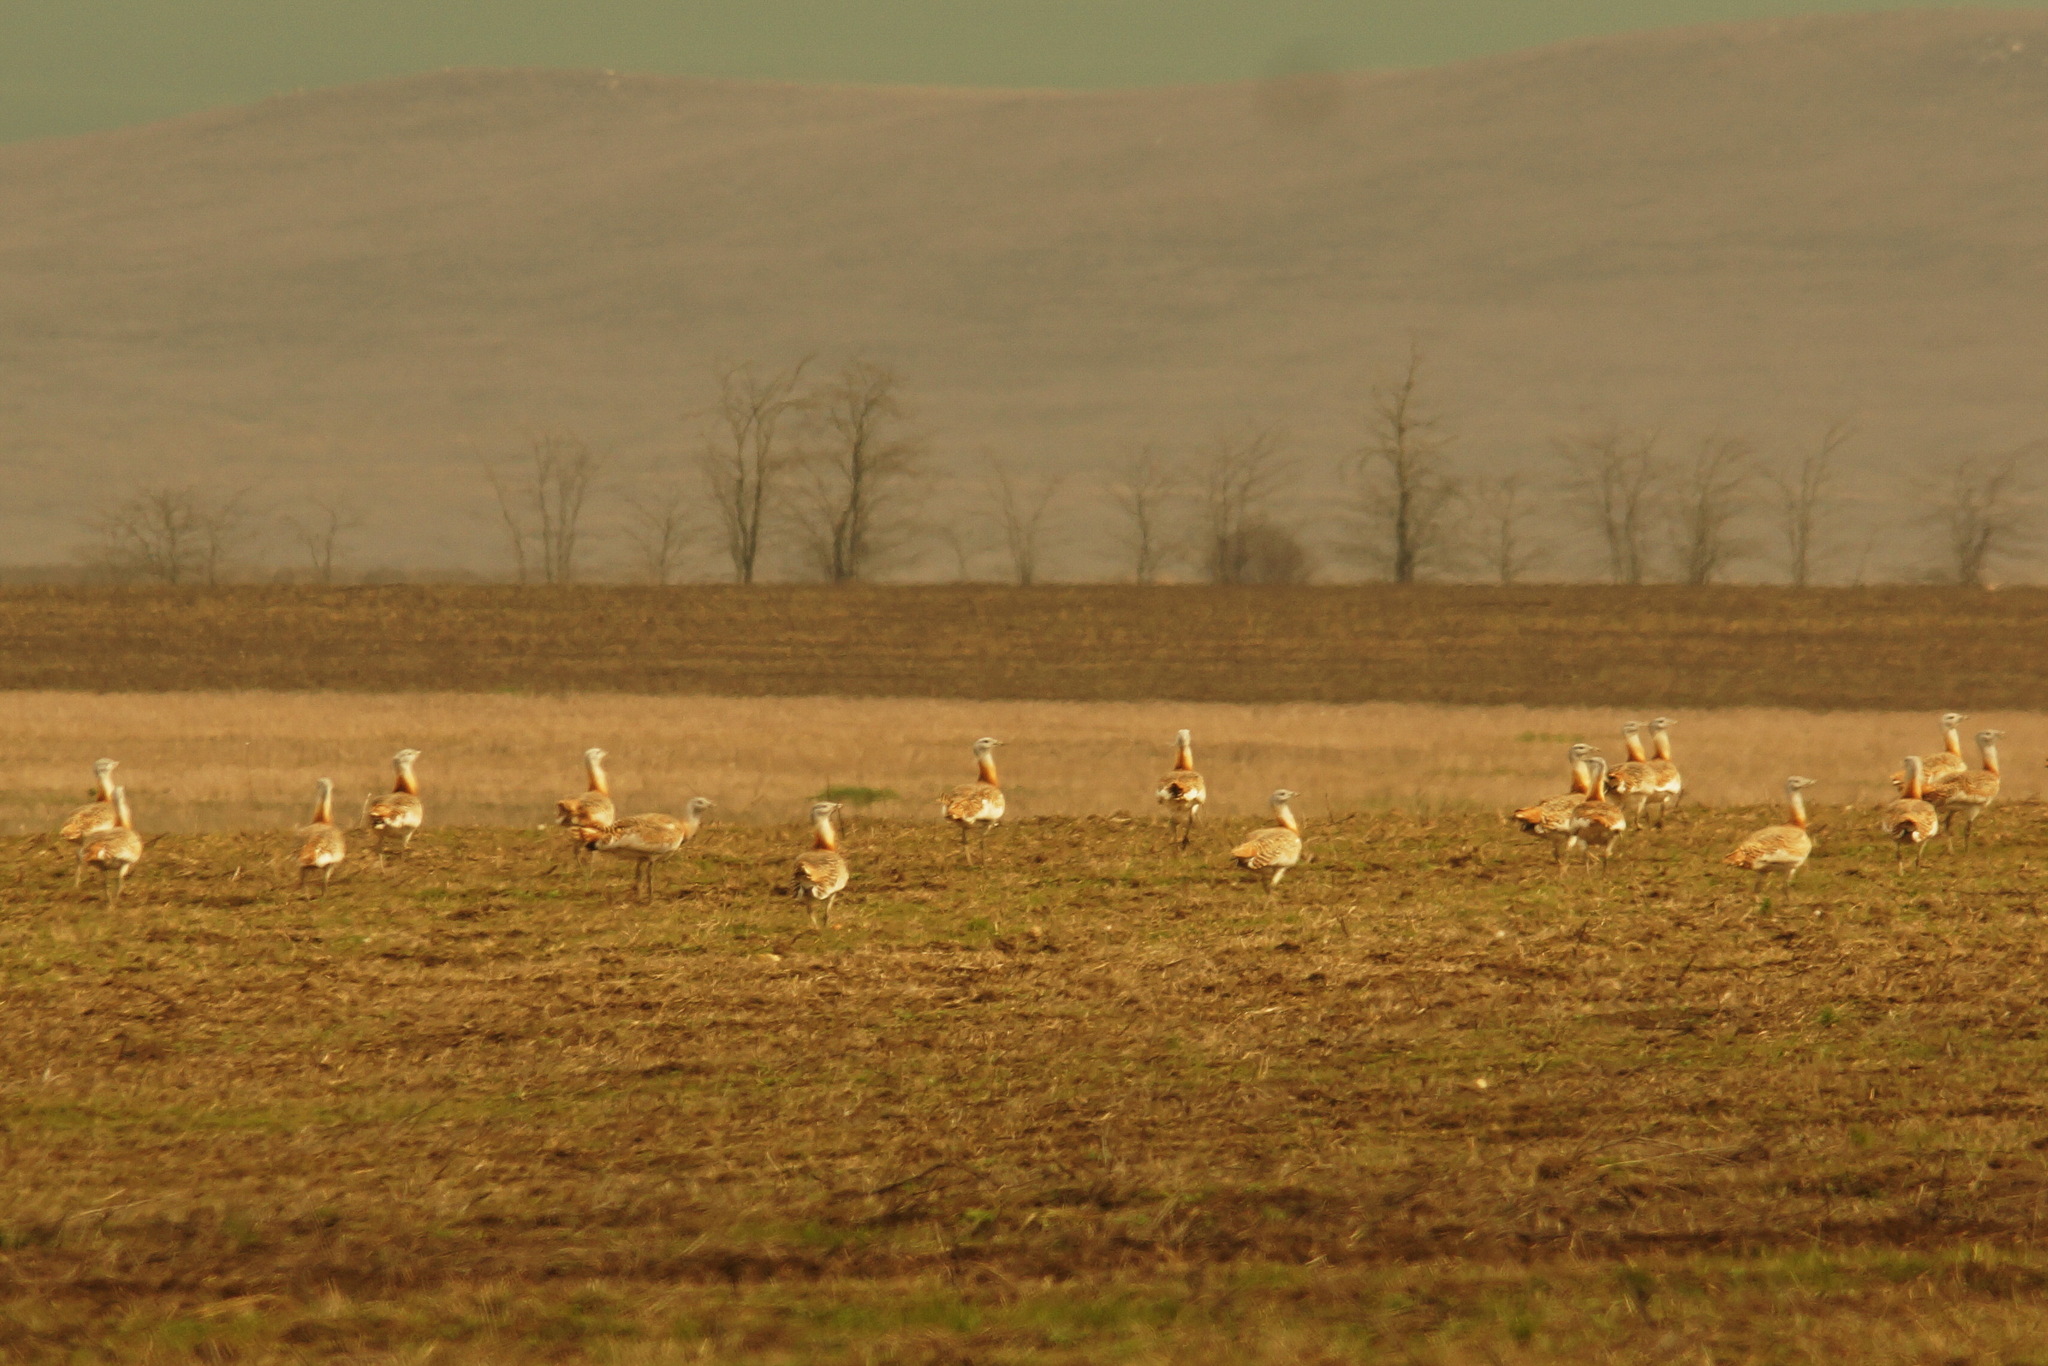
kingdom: Animalia
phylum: Chordata
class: Aves
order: Otidiformes
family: Otididae
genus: Otis
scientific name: Otis tarda
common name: Great bustard
